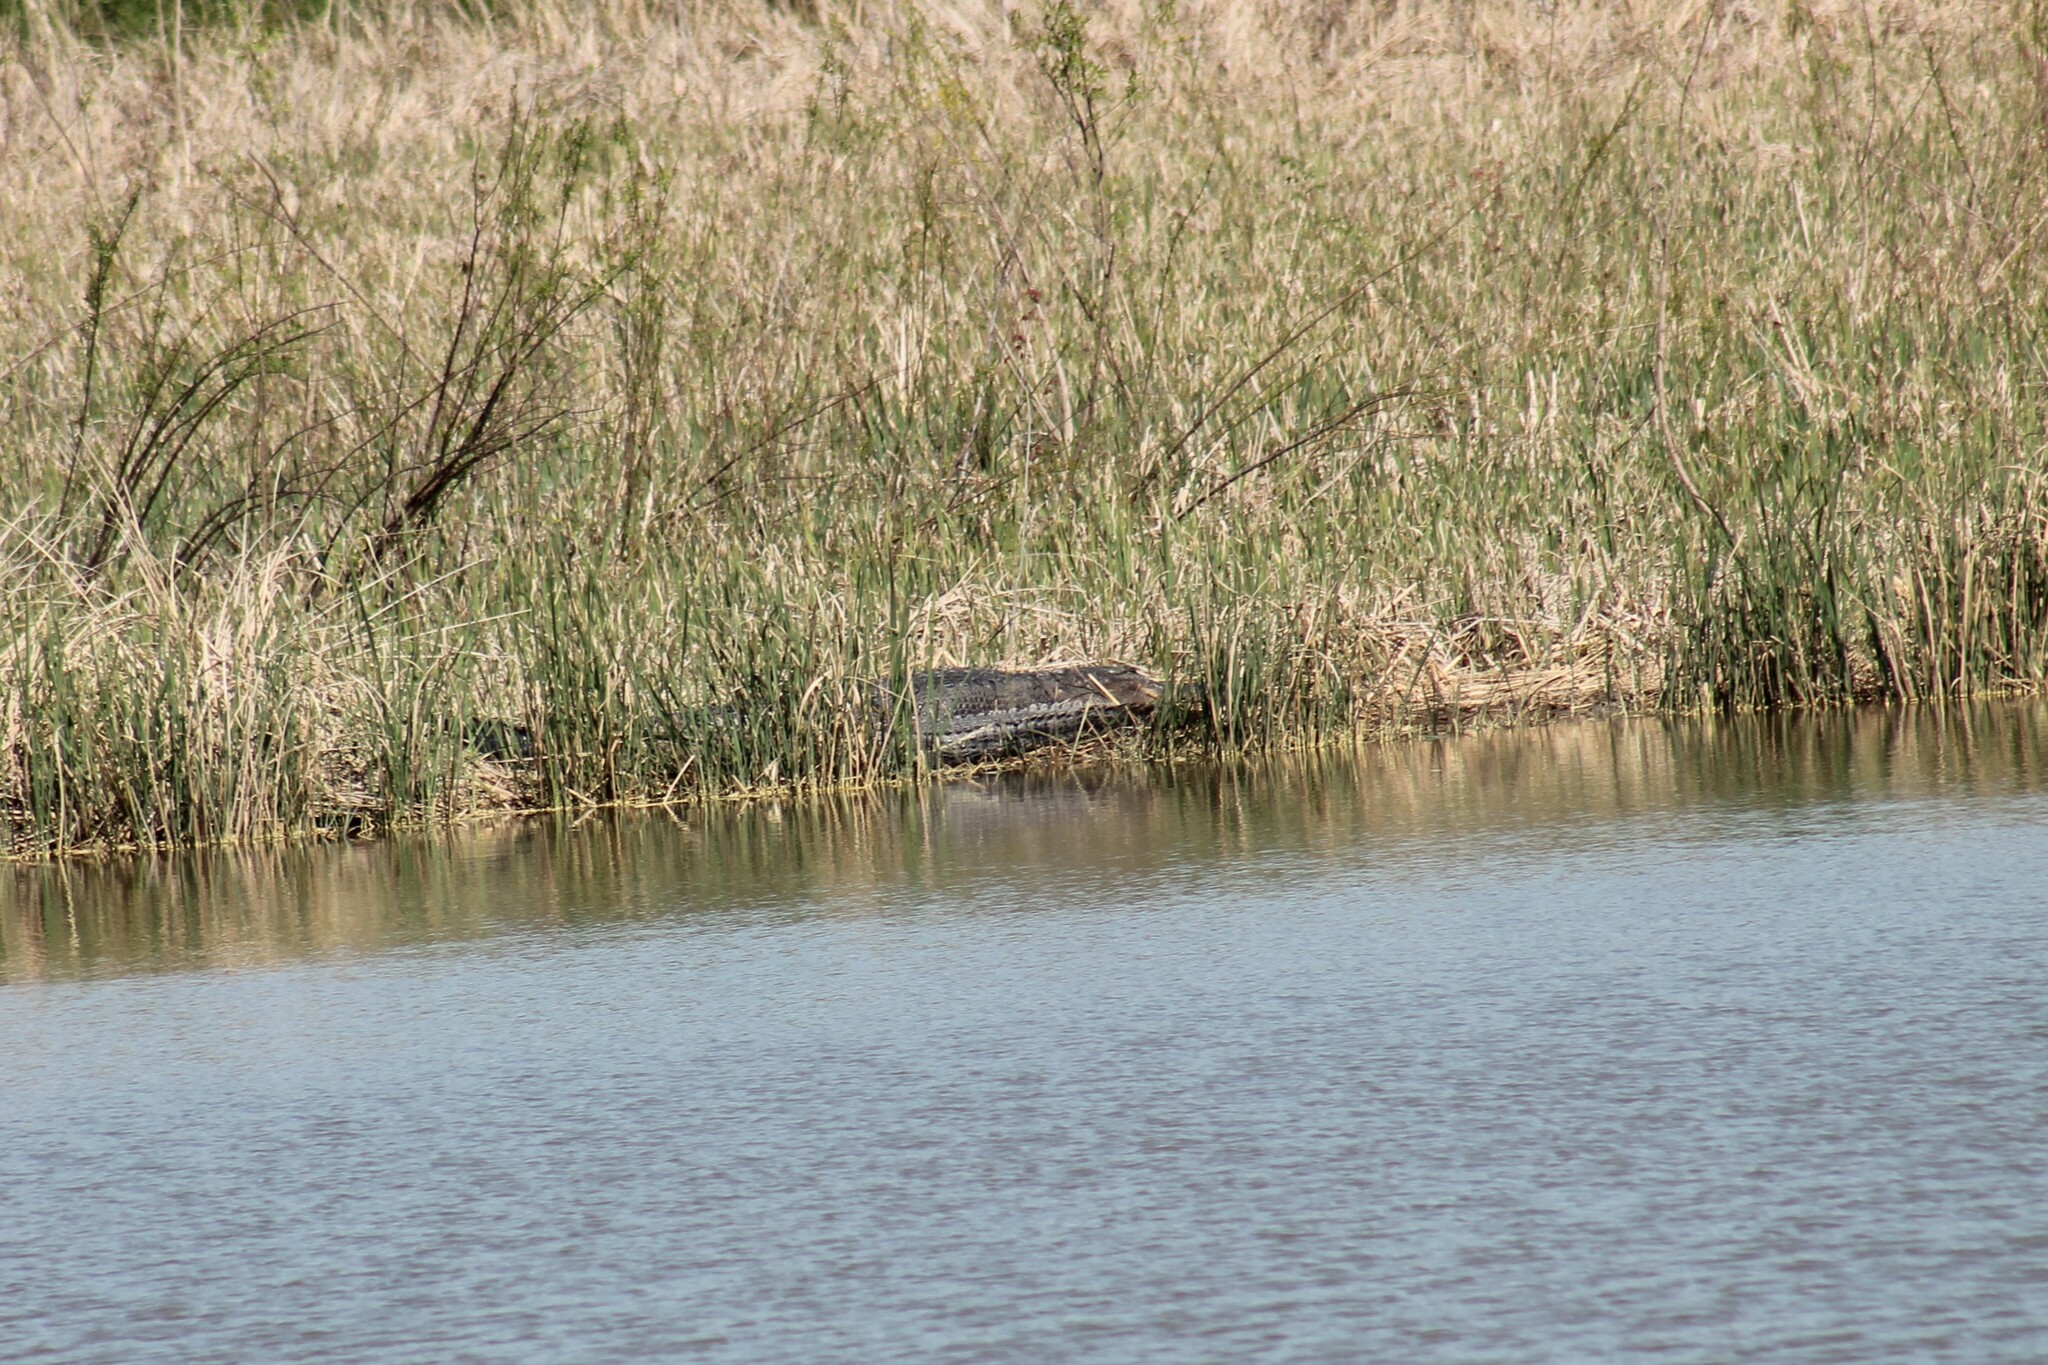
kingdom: Animalia
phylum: Chordata
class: Crocodylia
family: Alligatoridae
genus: Alligator
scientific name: Alligator mississippiensis
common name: American alligator
